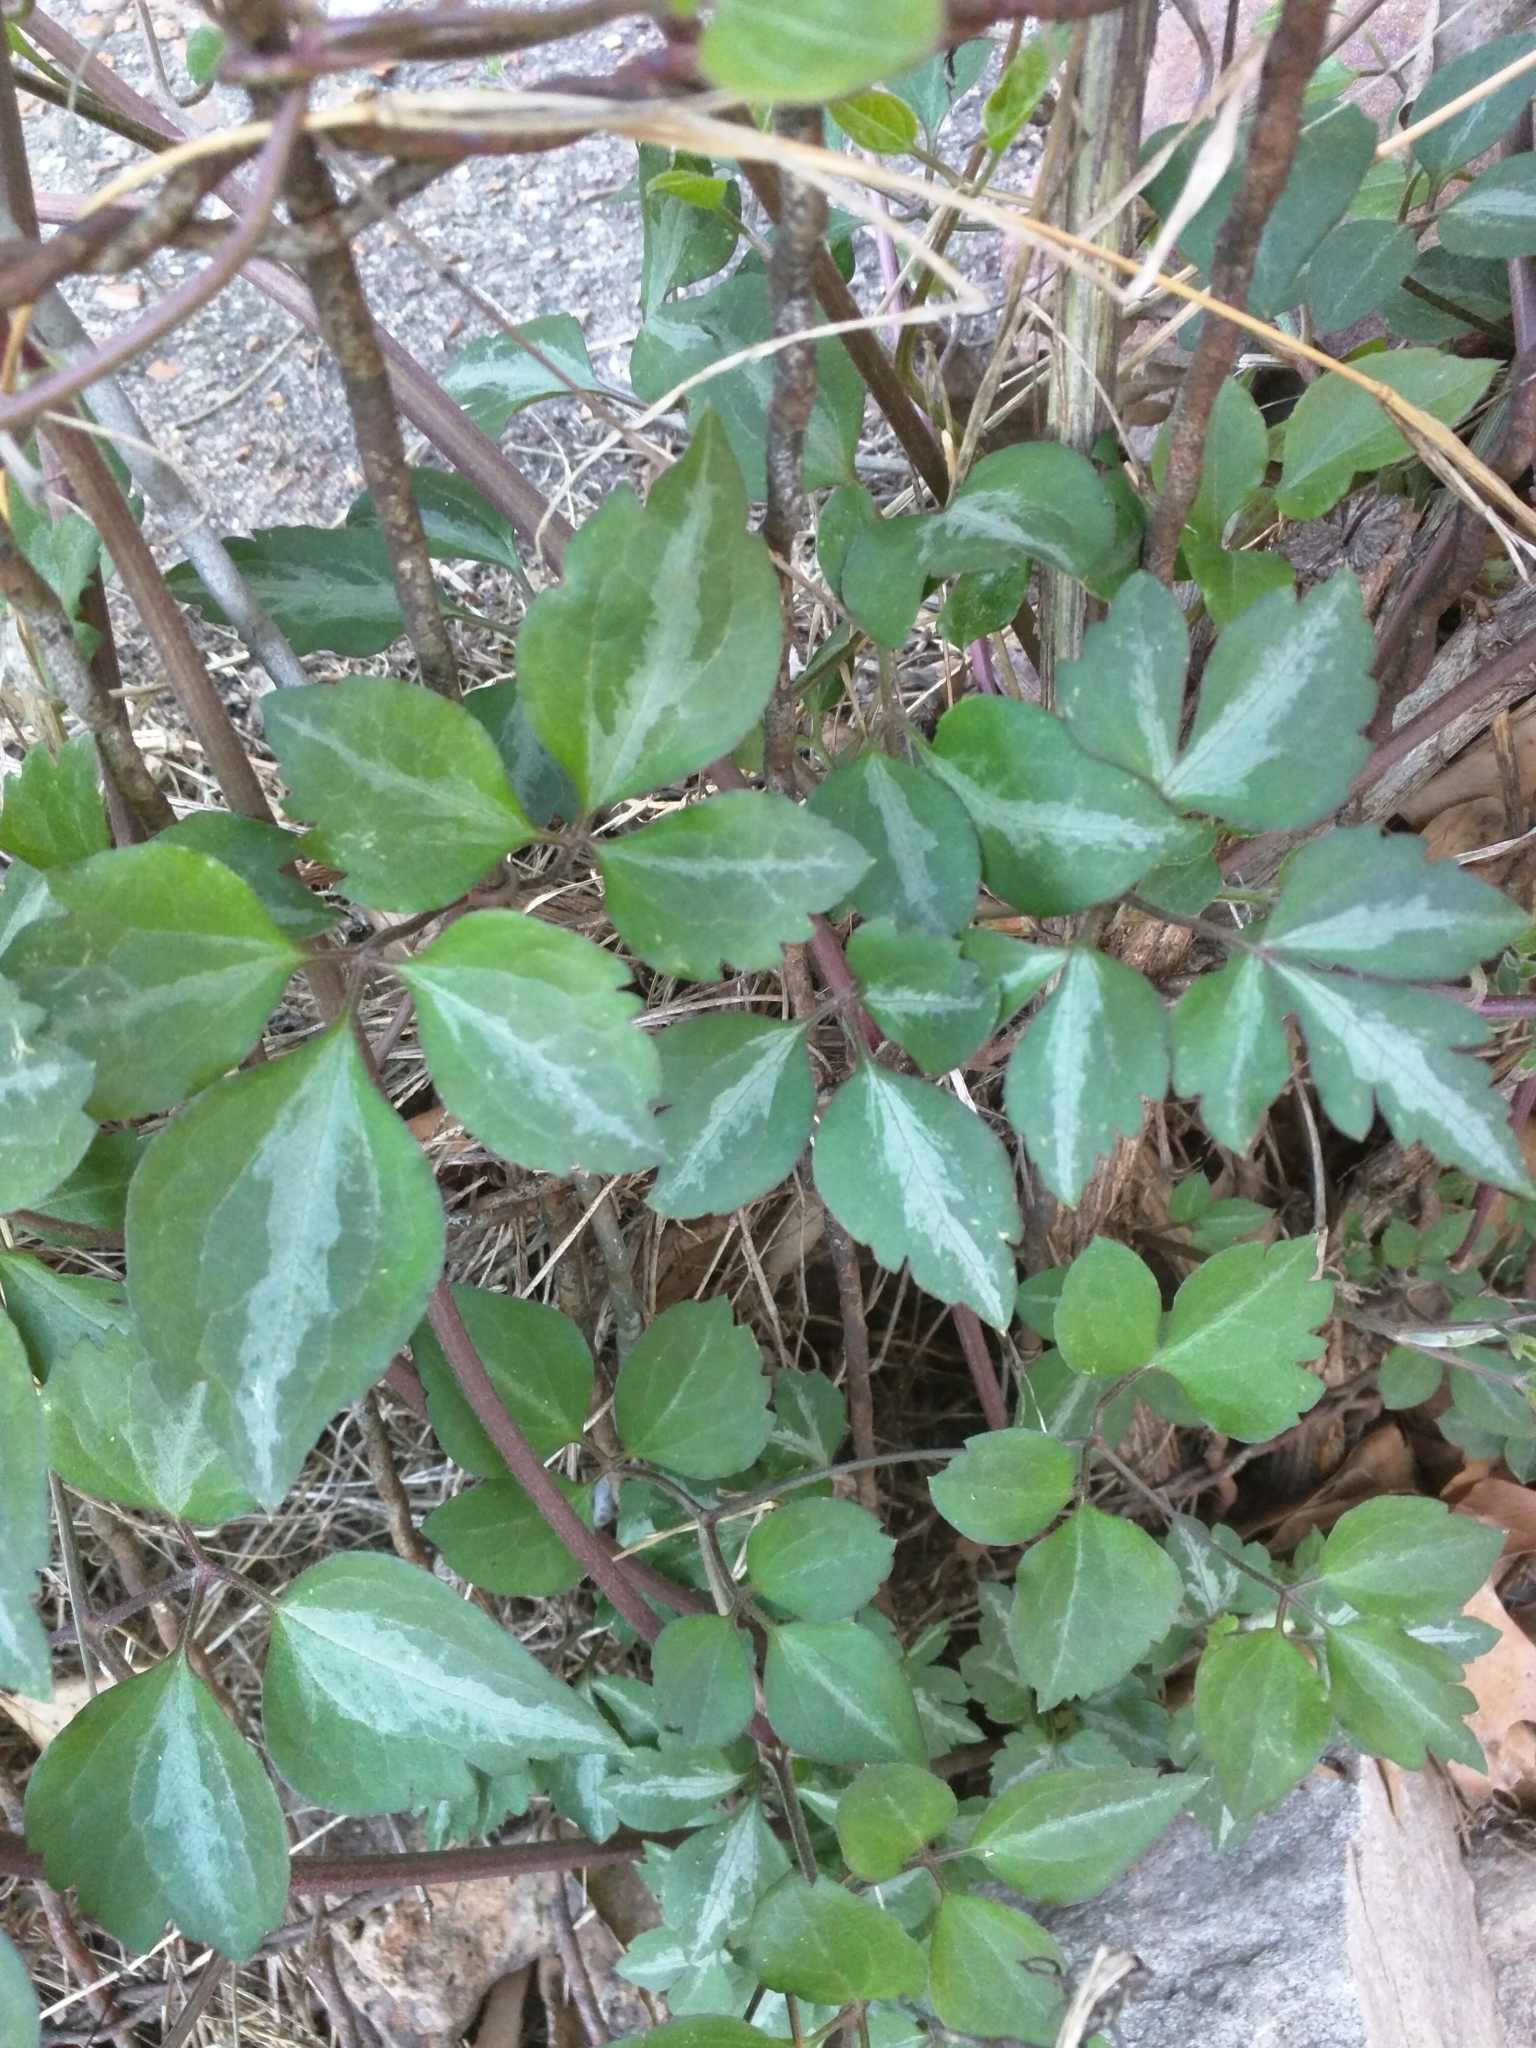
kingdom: Plantae
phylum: Tracheophyta
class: Magnoliopsida
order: Ranunculales
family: Ranunculaceae
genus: Clematis
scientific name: Clematis terniflora
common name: Sweet autumn clematis
